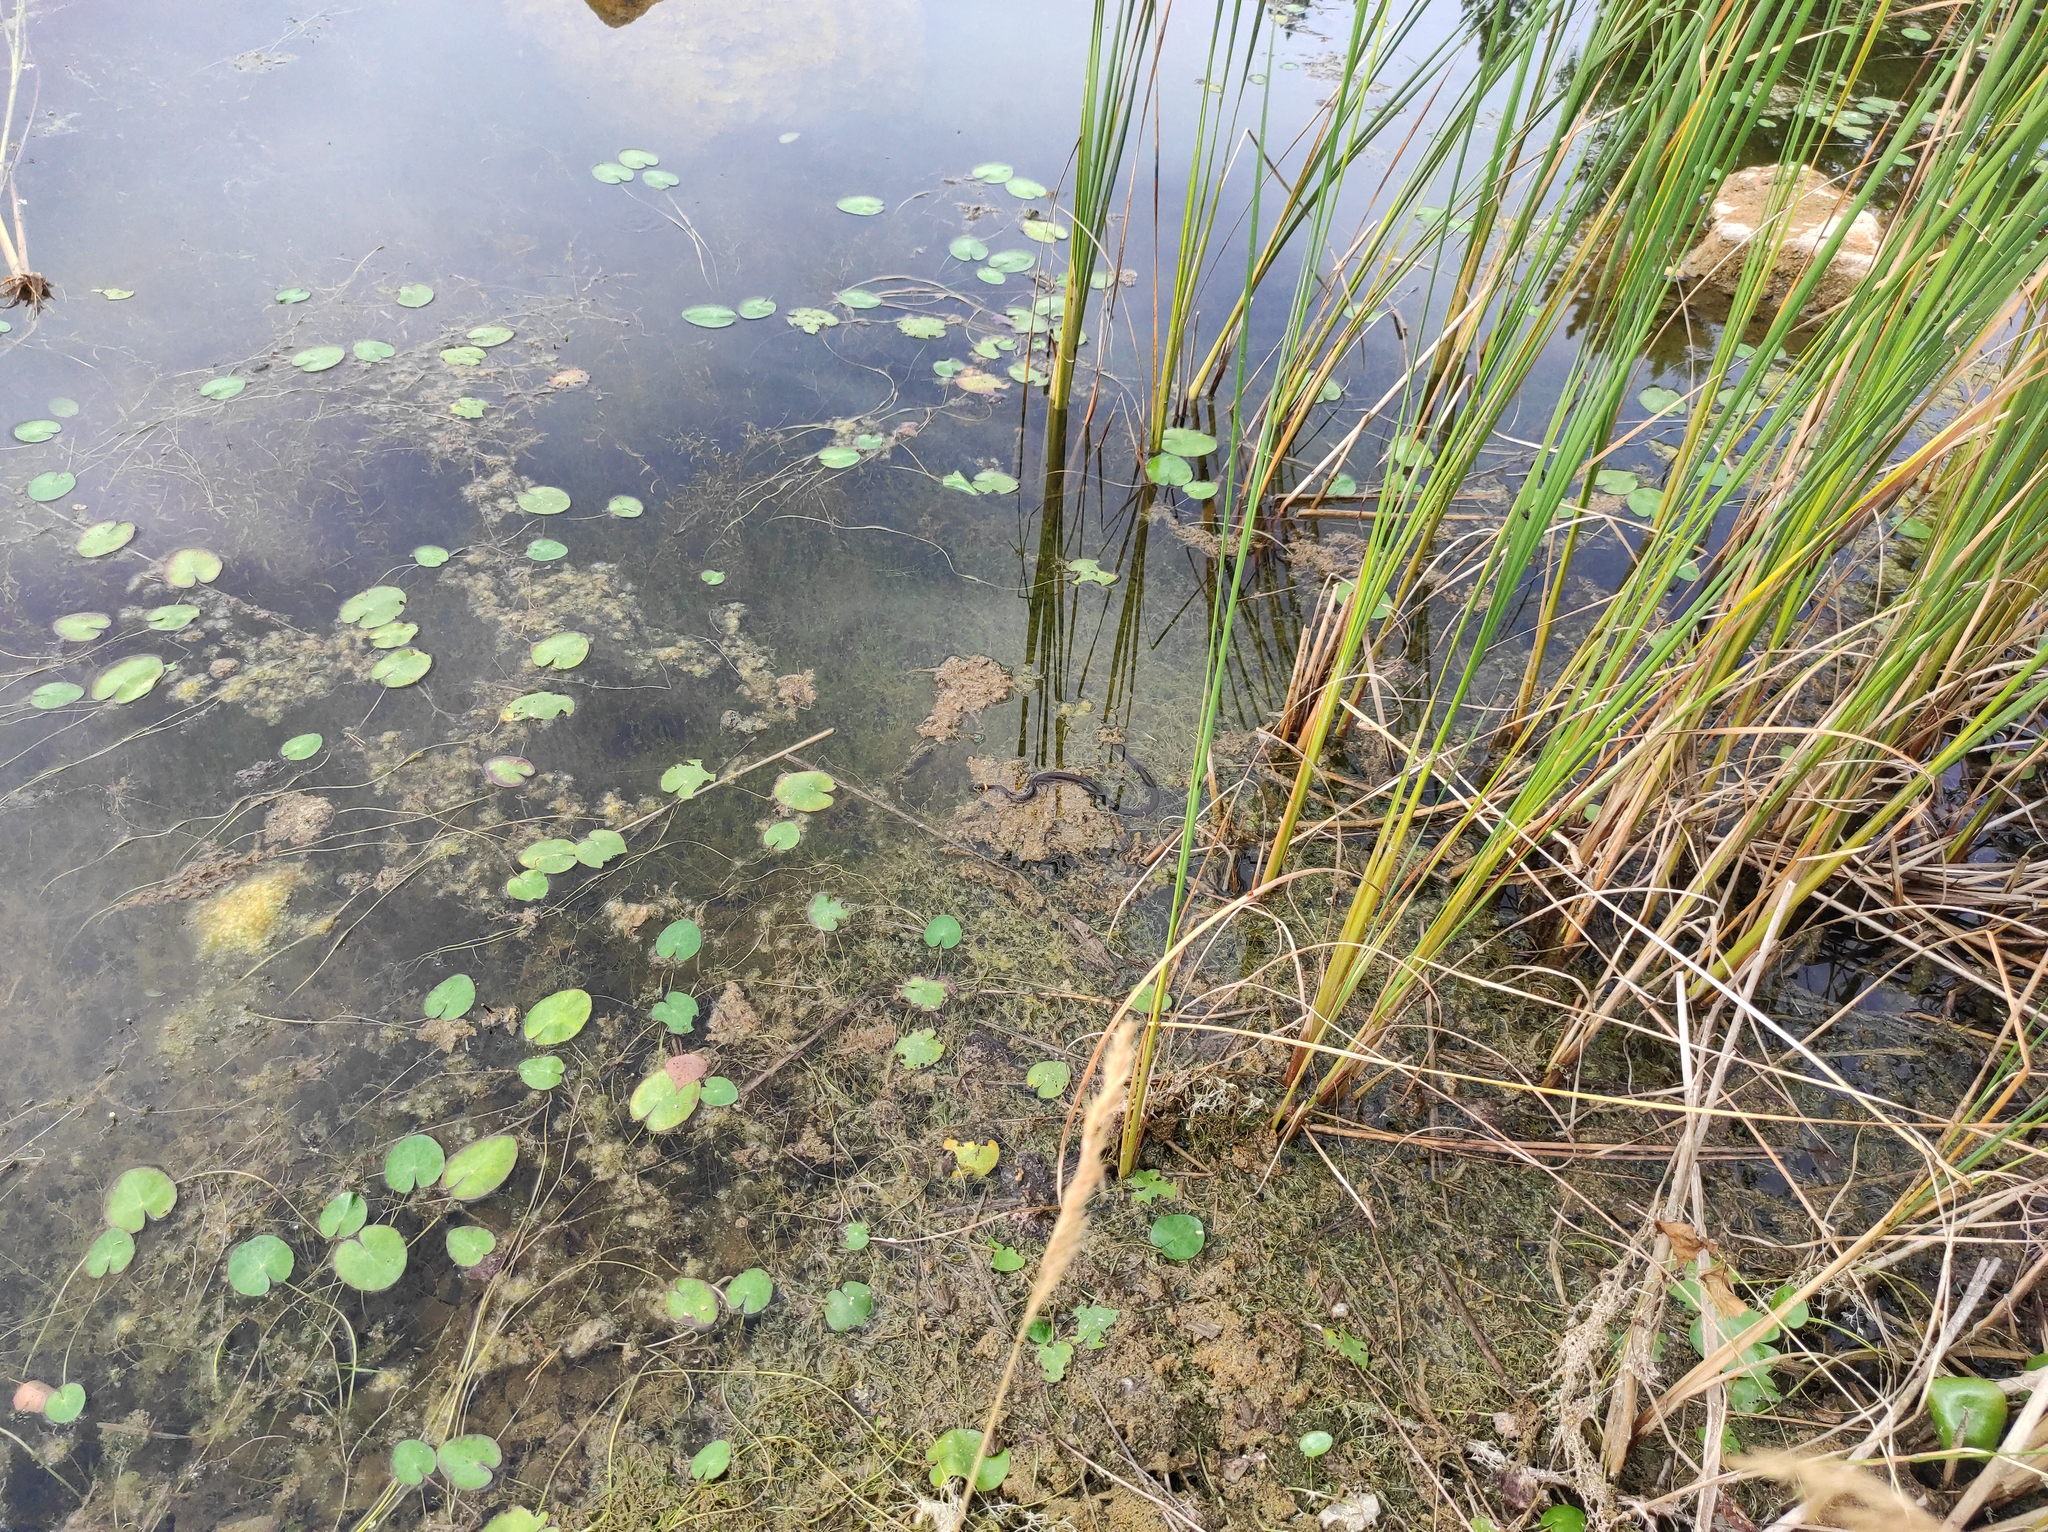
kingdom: Animalia
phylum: Chordata
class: Squamata
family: Colubridae
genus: Natrix
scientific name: Natrix natrix
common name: Grass snake
